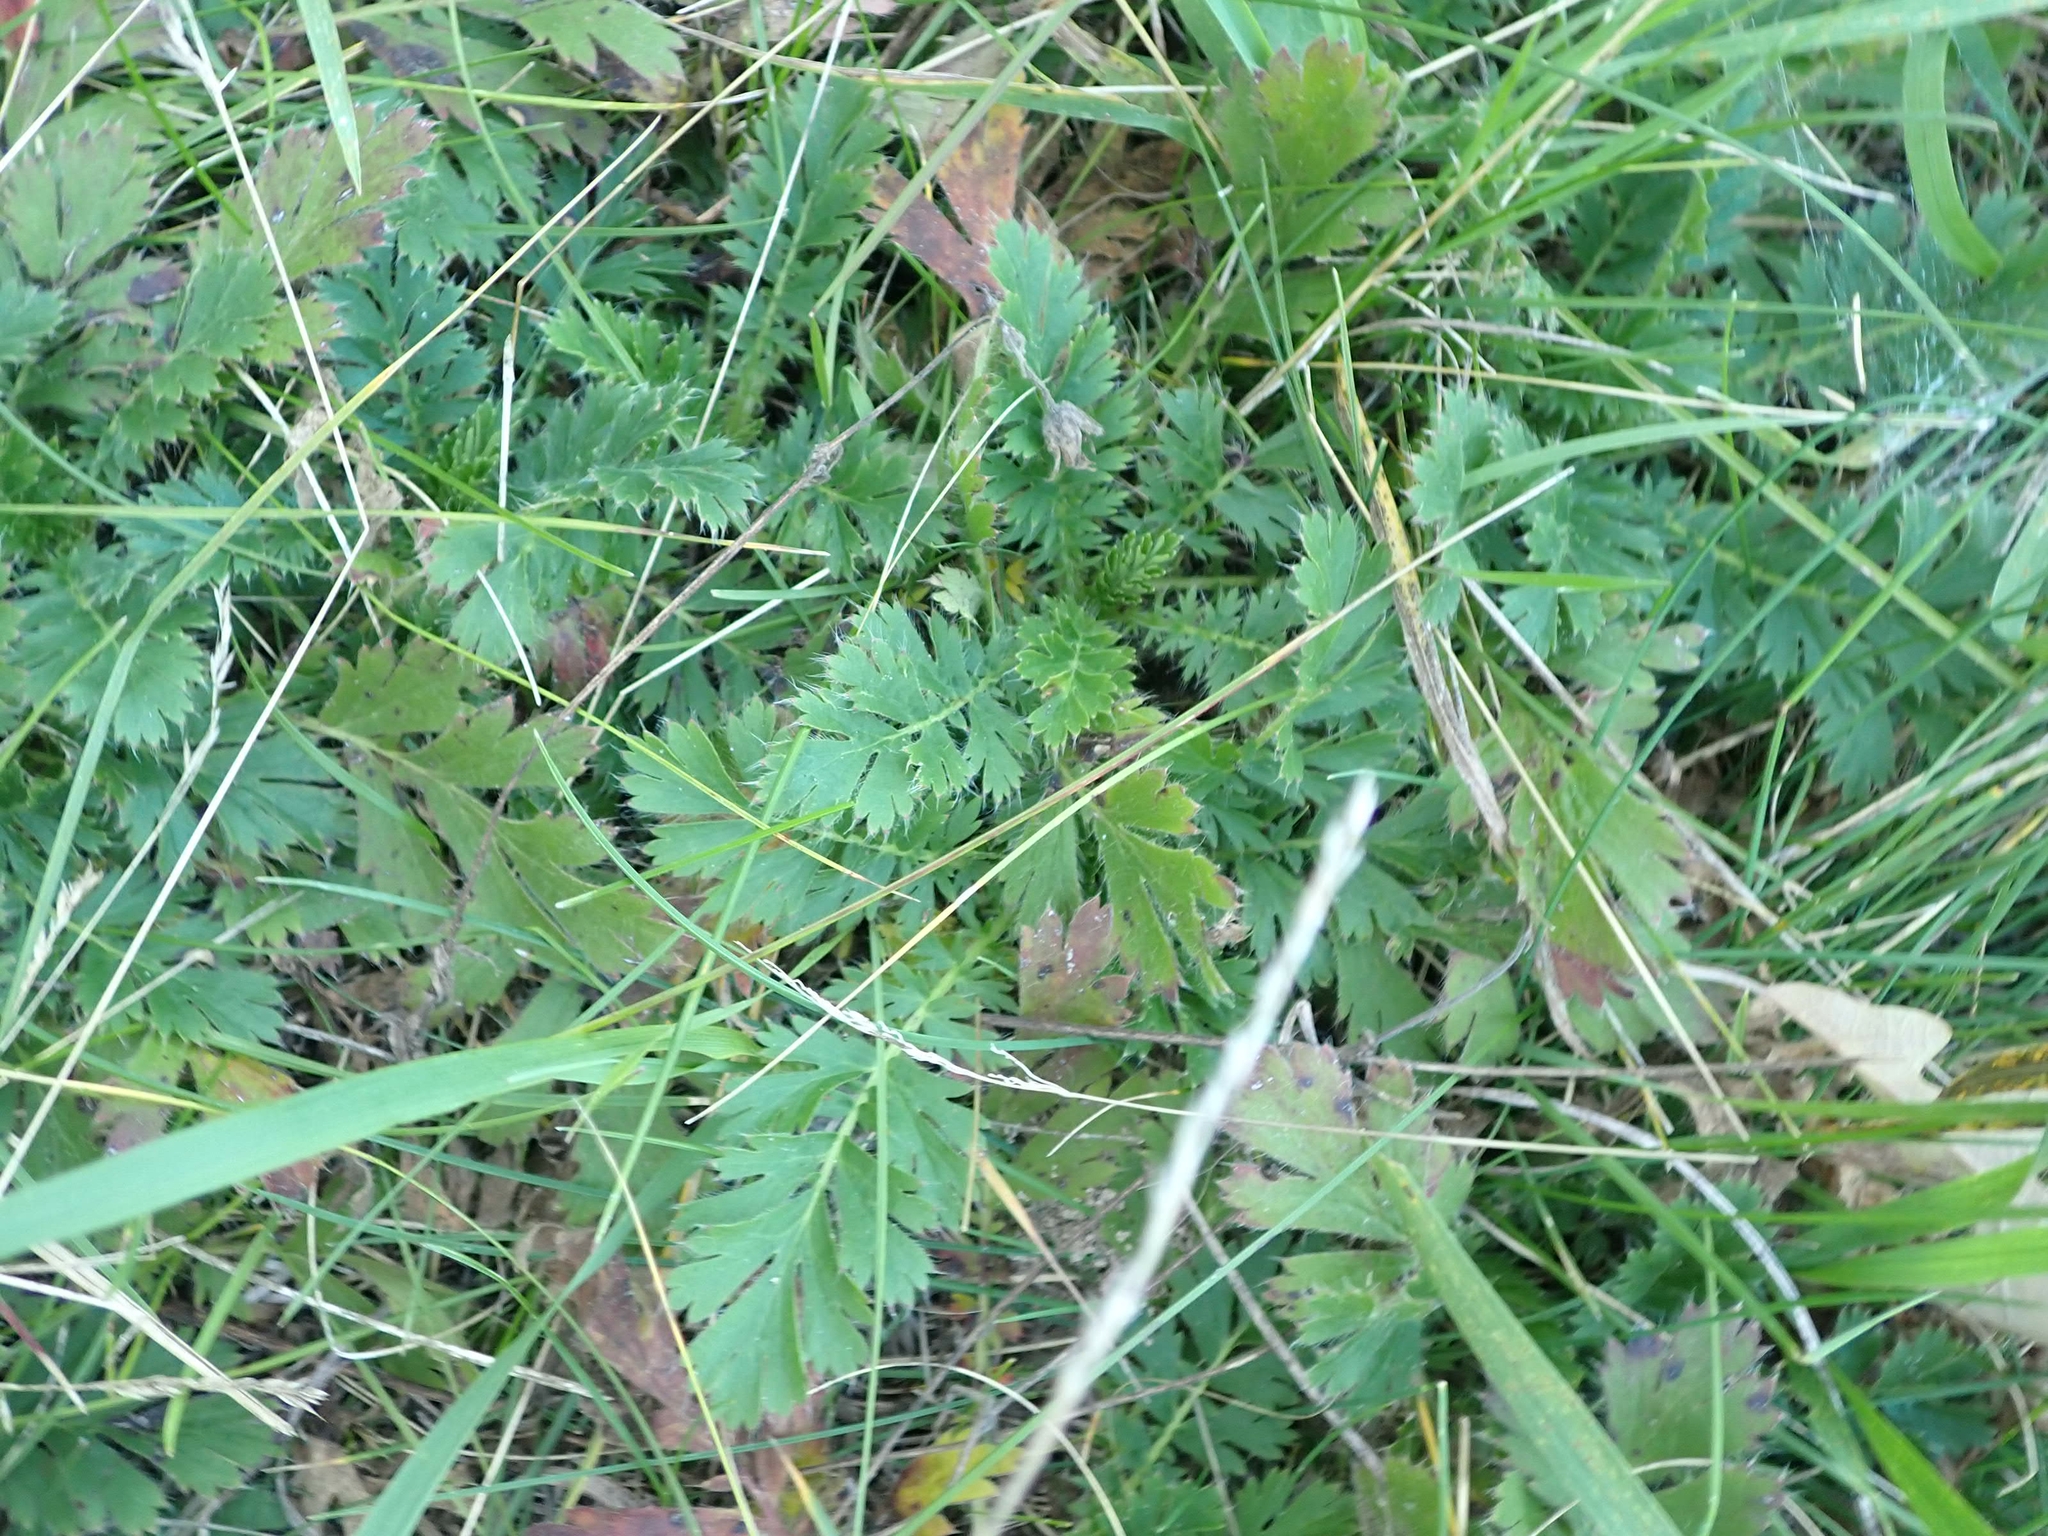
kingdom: Plantae
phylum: Tracheophyta
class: Magnoliopsida
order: Rosales
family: Rosaceae
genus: Geum
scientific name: Geum triflorum
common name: Old man's whiskers
